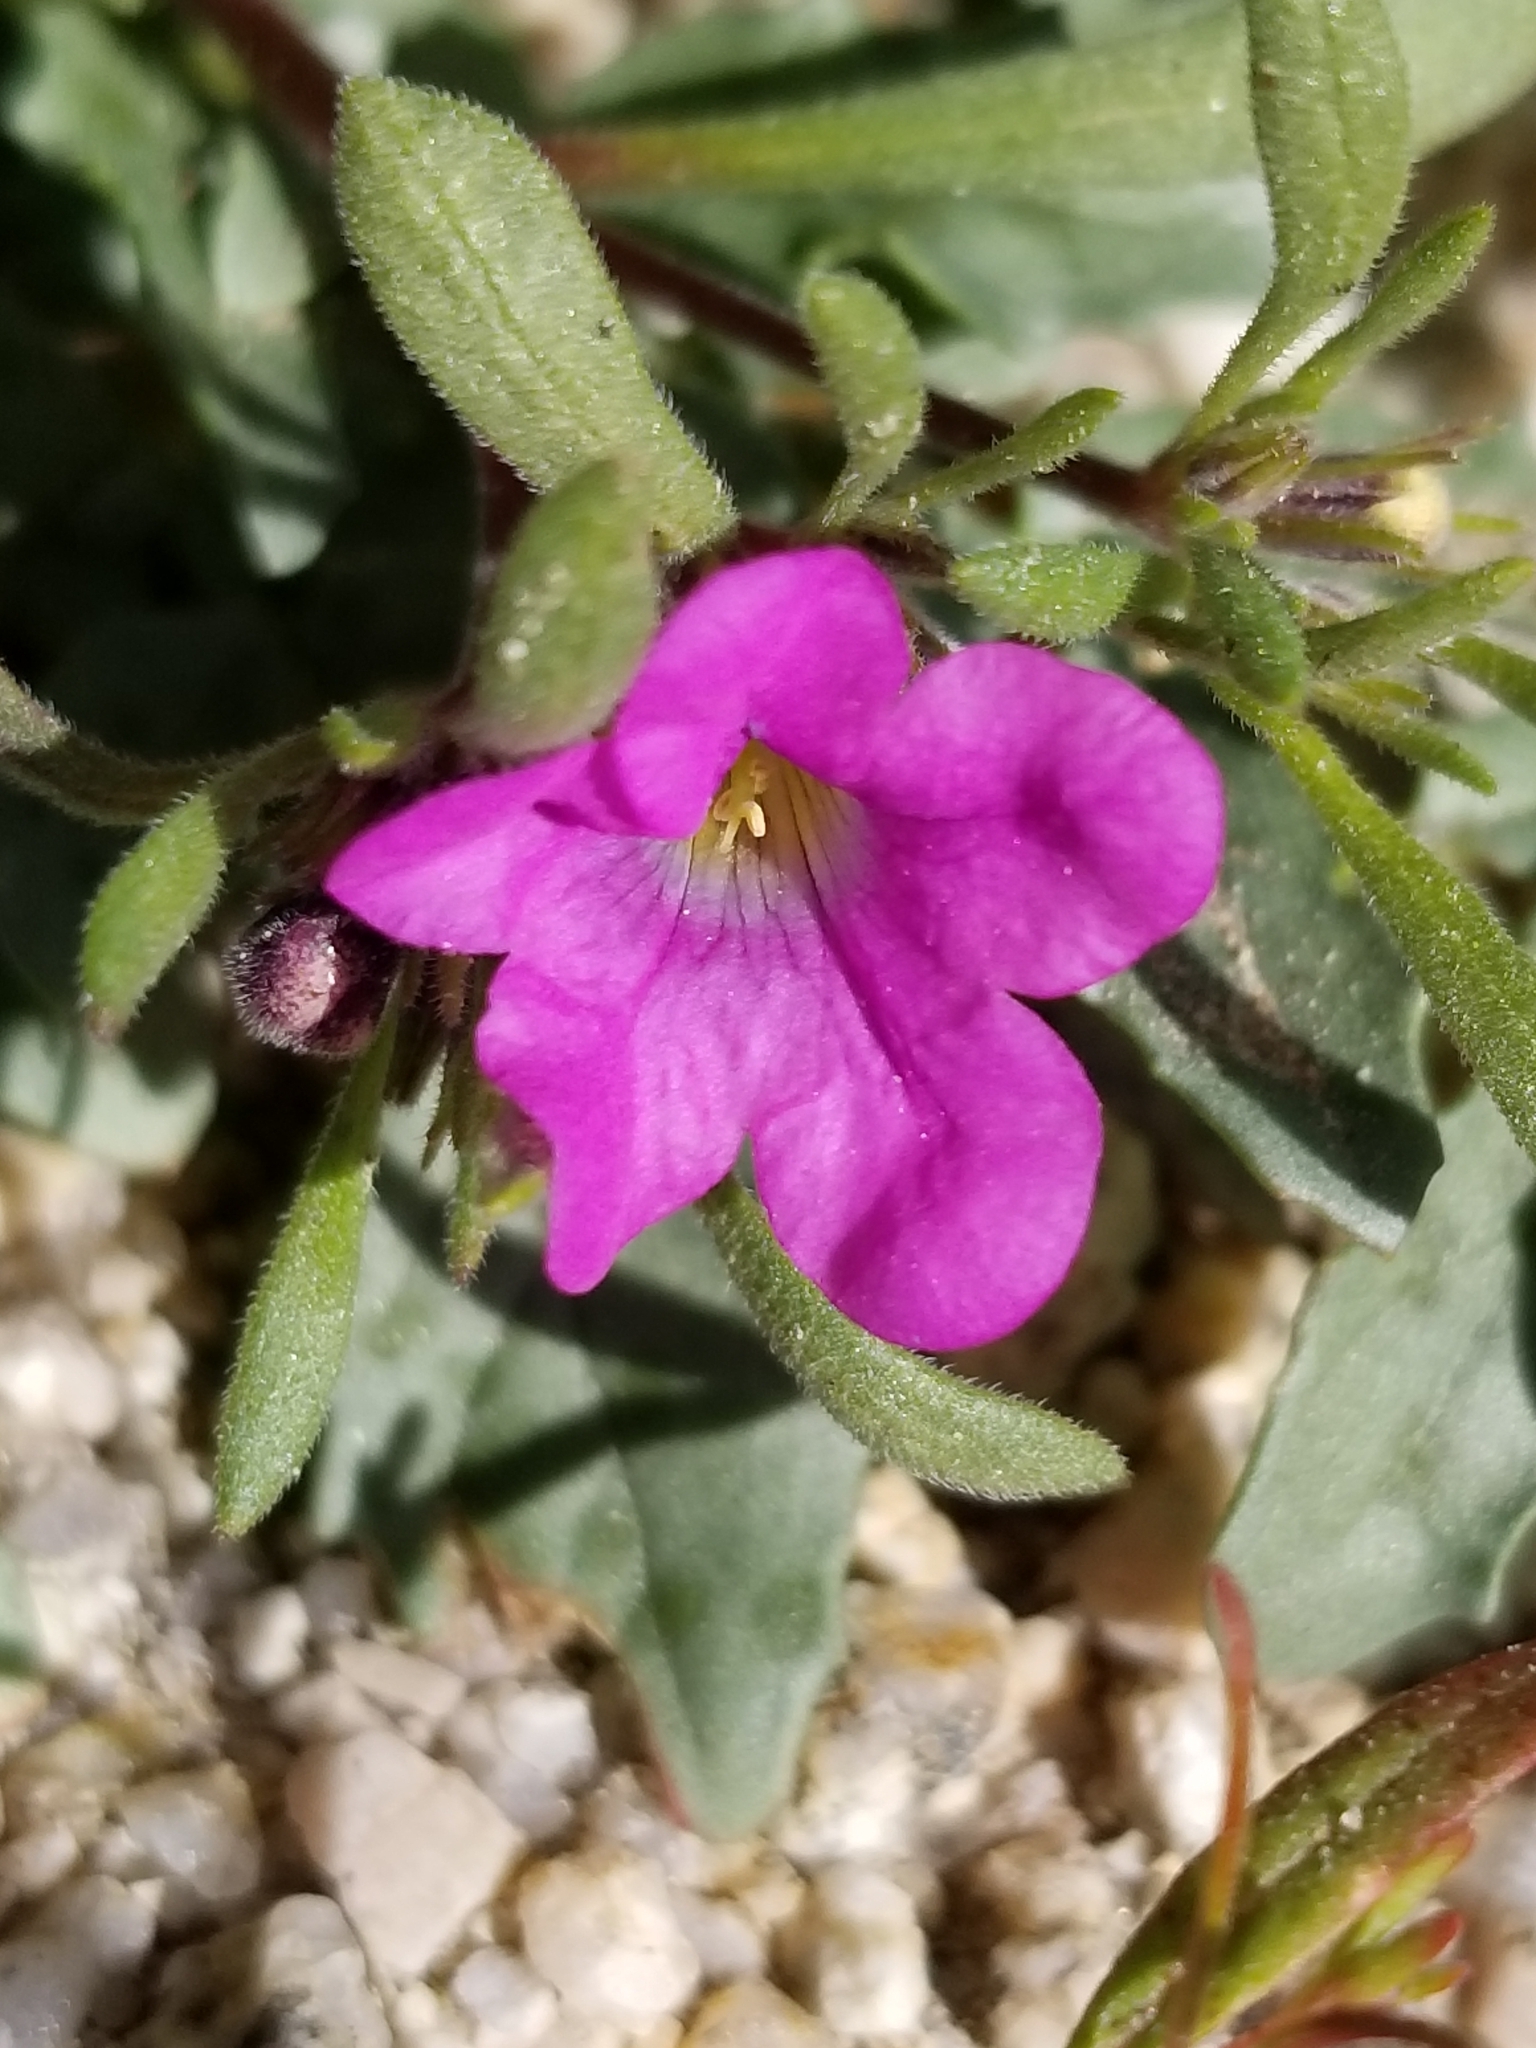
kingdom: Plantae
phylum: Tracheophyta
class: Magnoliopsida
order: Boraginales
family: Namaceae
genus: Nama
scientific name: Nama demissa
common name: Leafy nama
